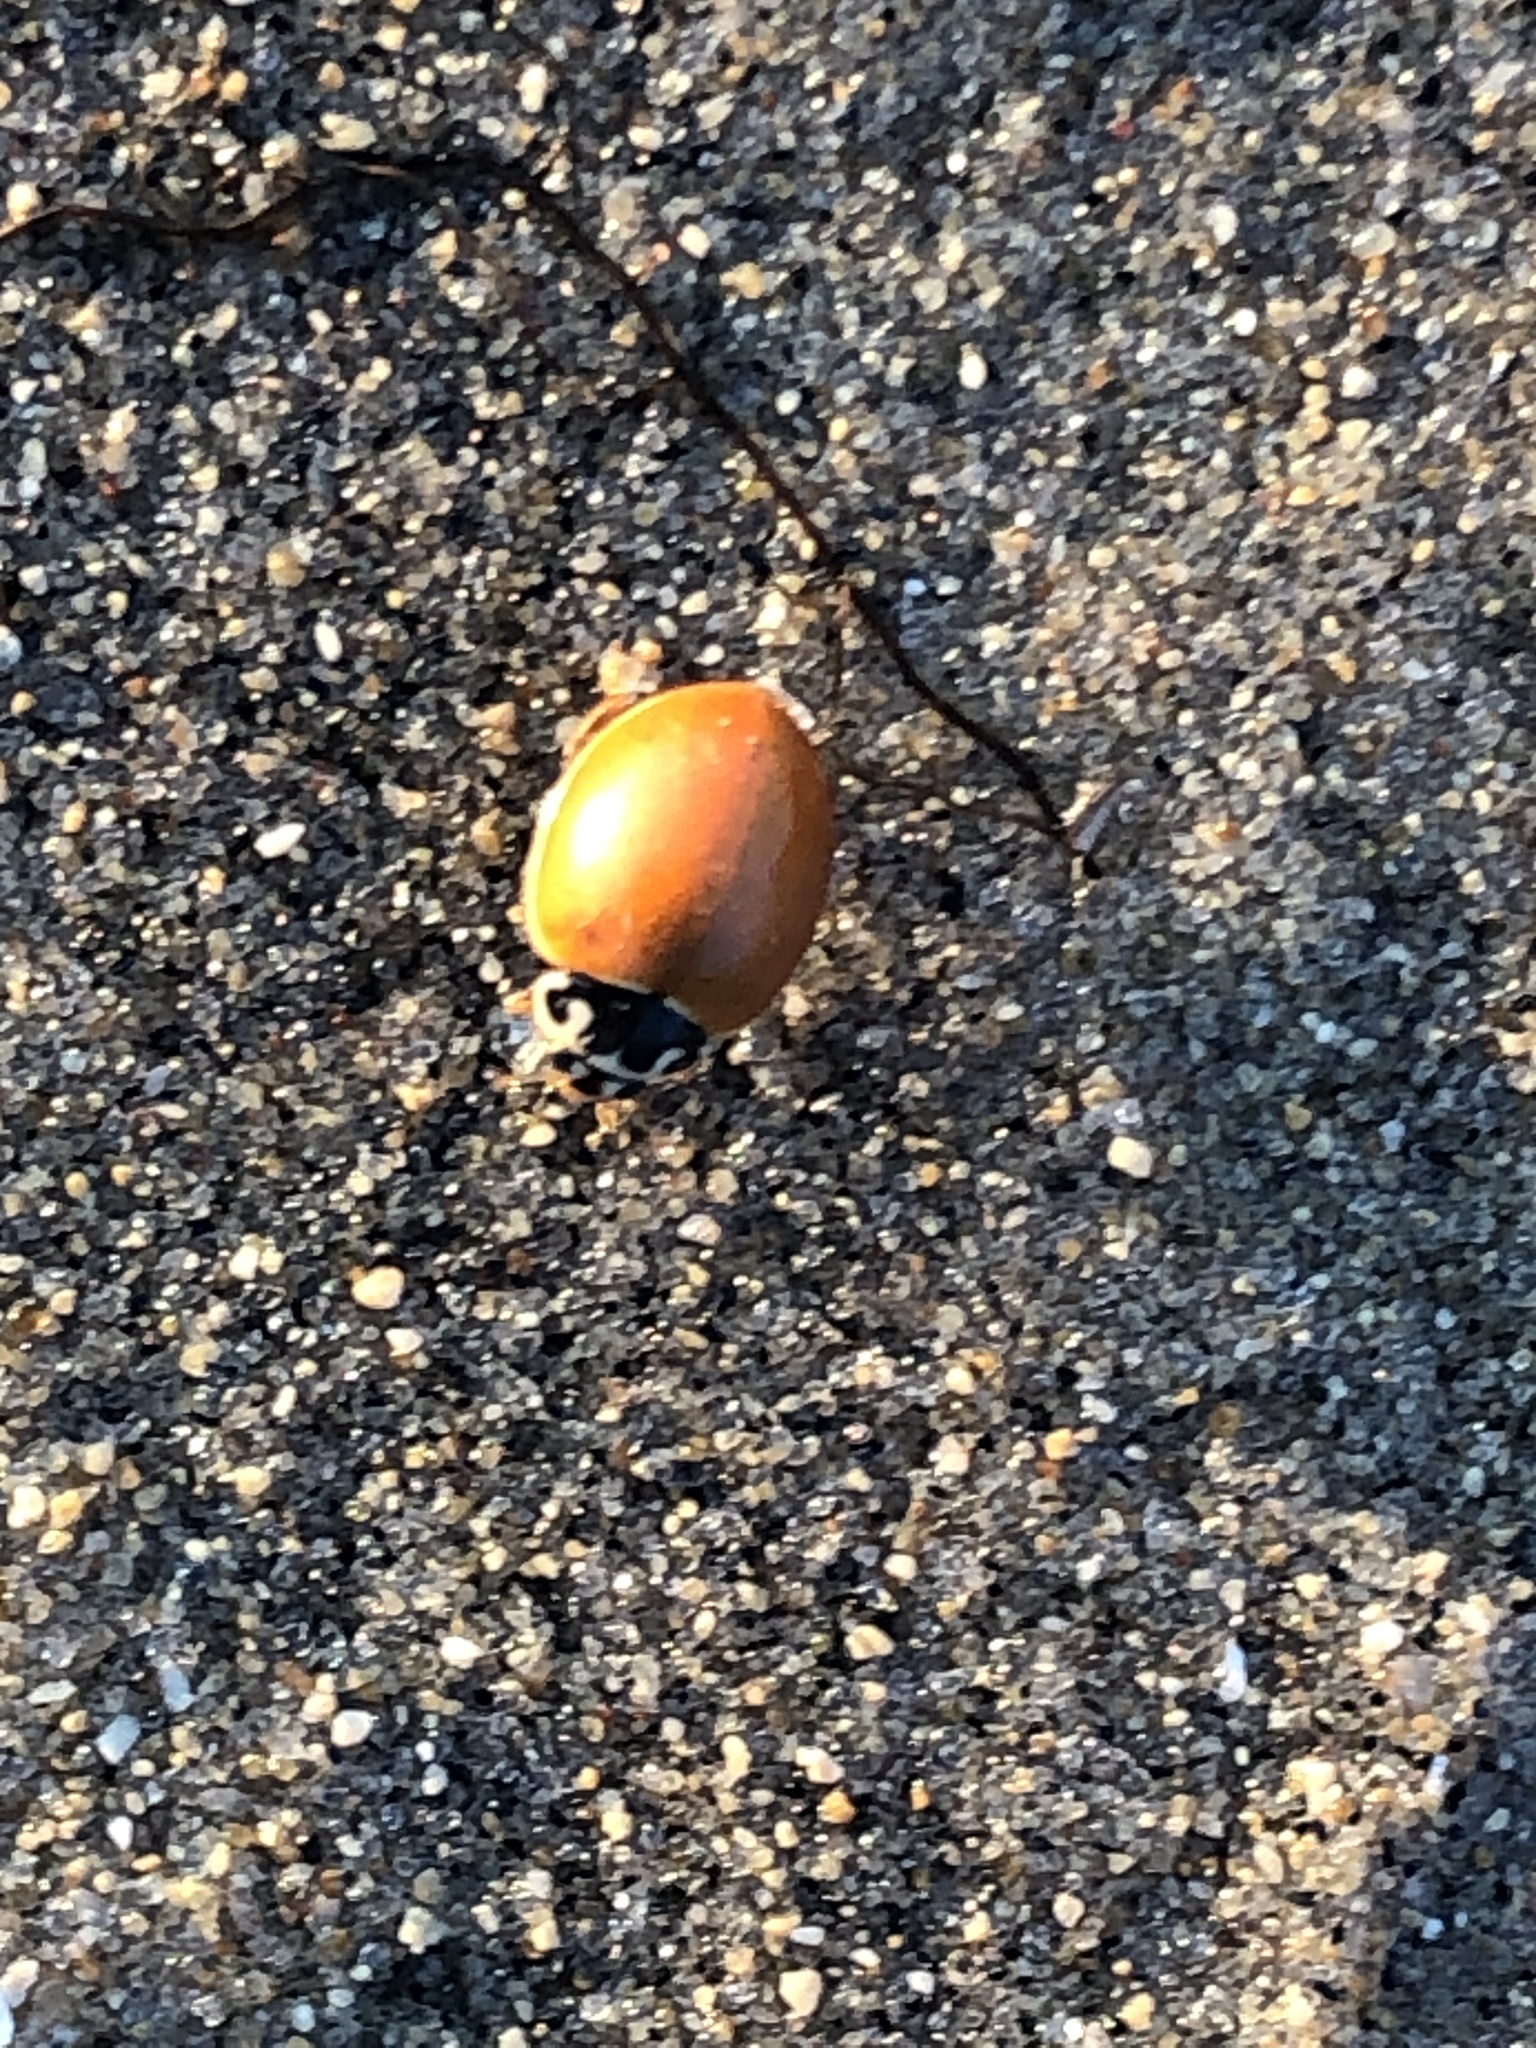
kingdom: Animalia
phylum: Arthropoda
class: Insecta
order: Coleoptera
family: Coccinellidae
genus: Cycloneda
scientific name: Cycloneda munda
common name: Polished lady beetle
